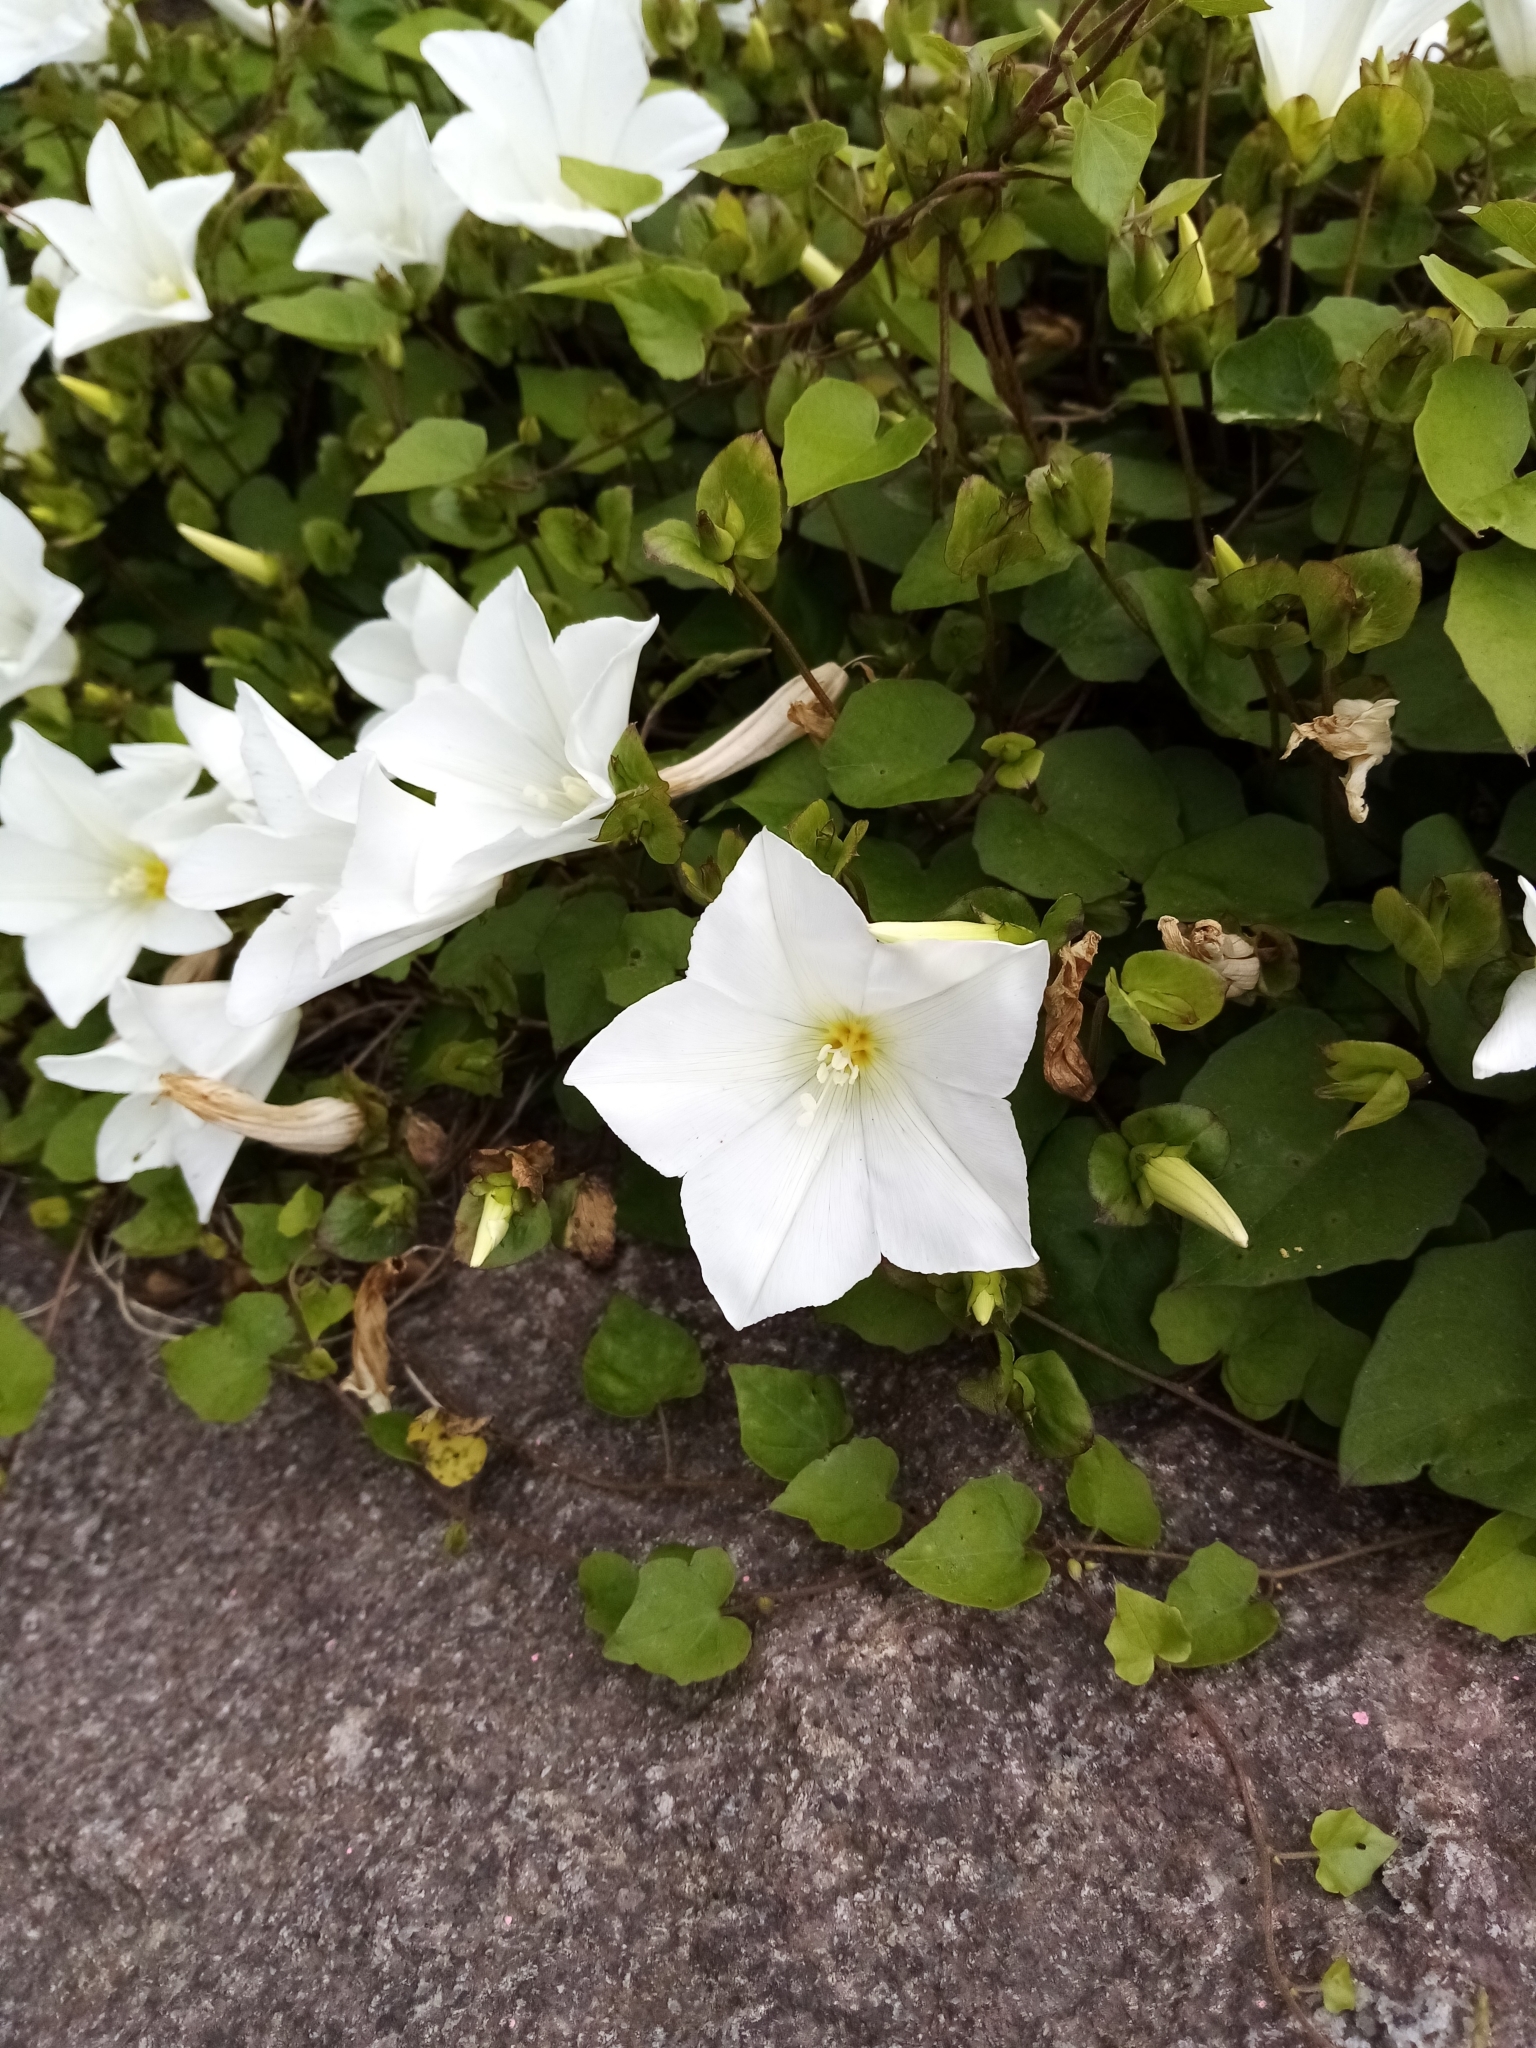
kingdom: Plantae
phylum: Tracheophyta
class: Magnoliopsida
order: Solanales
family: Convolvulaceae
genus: Calystegia
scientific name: Calystegia tuguriorum
